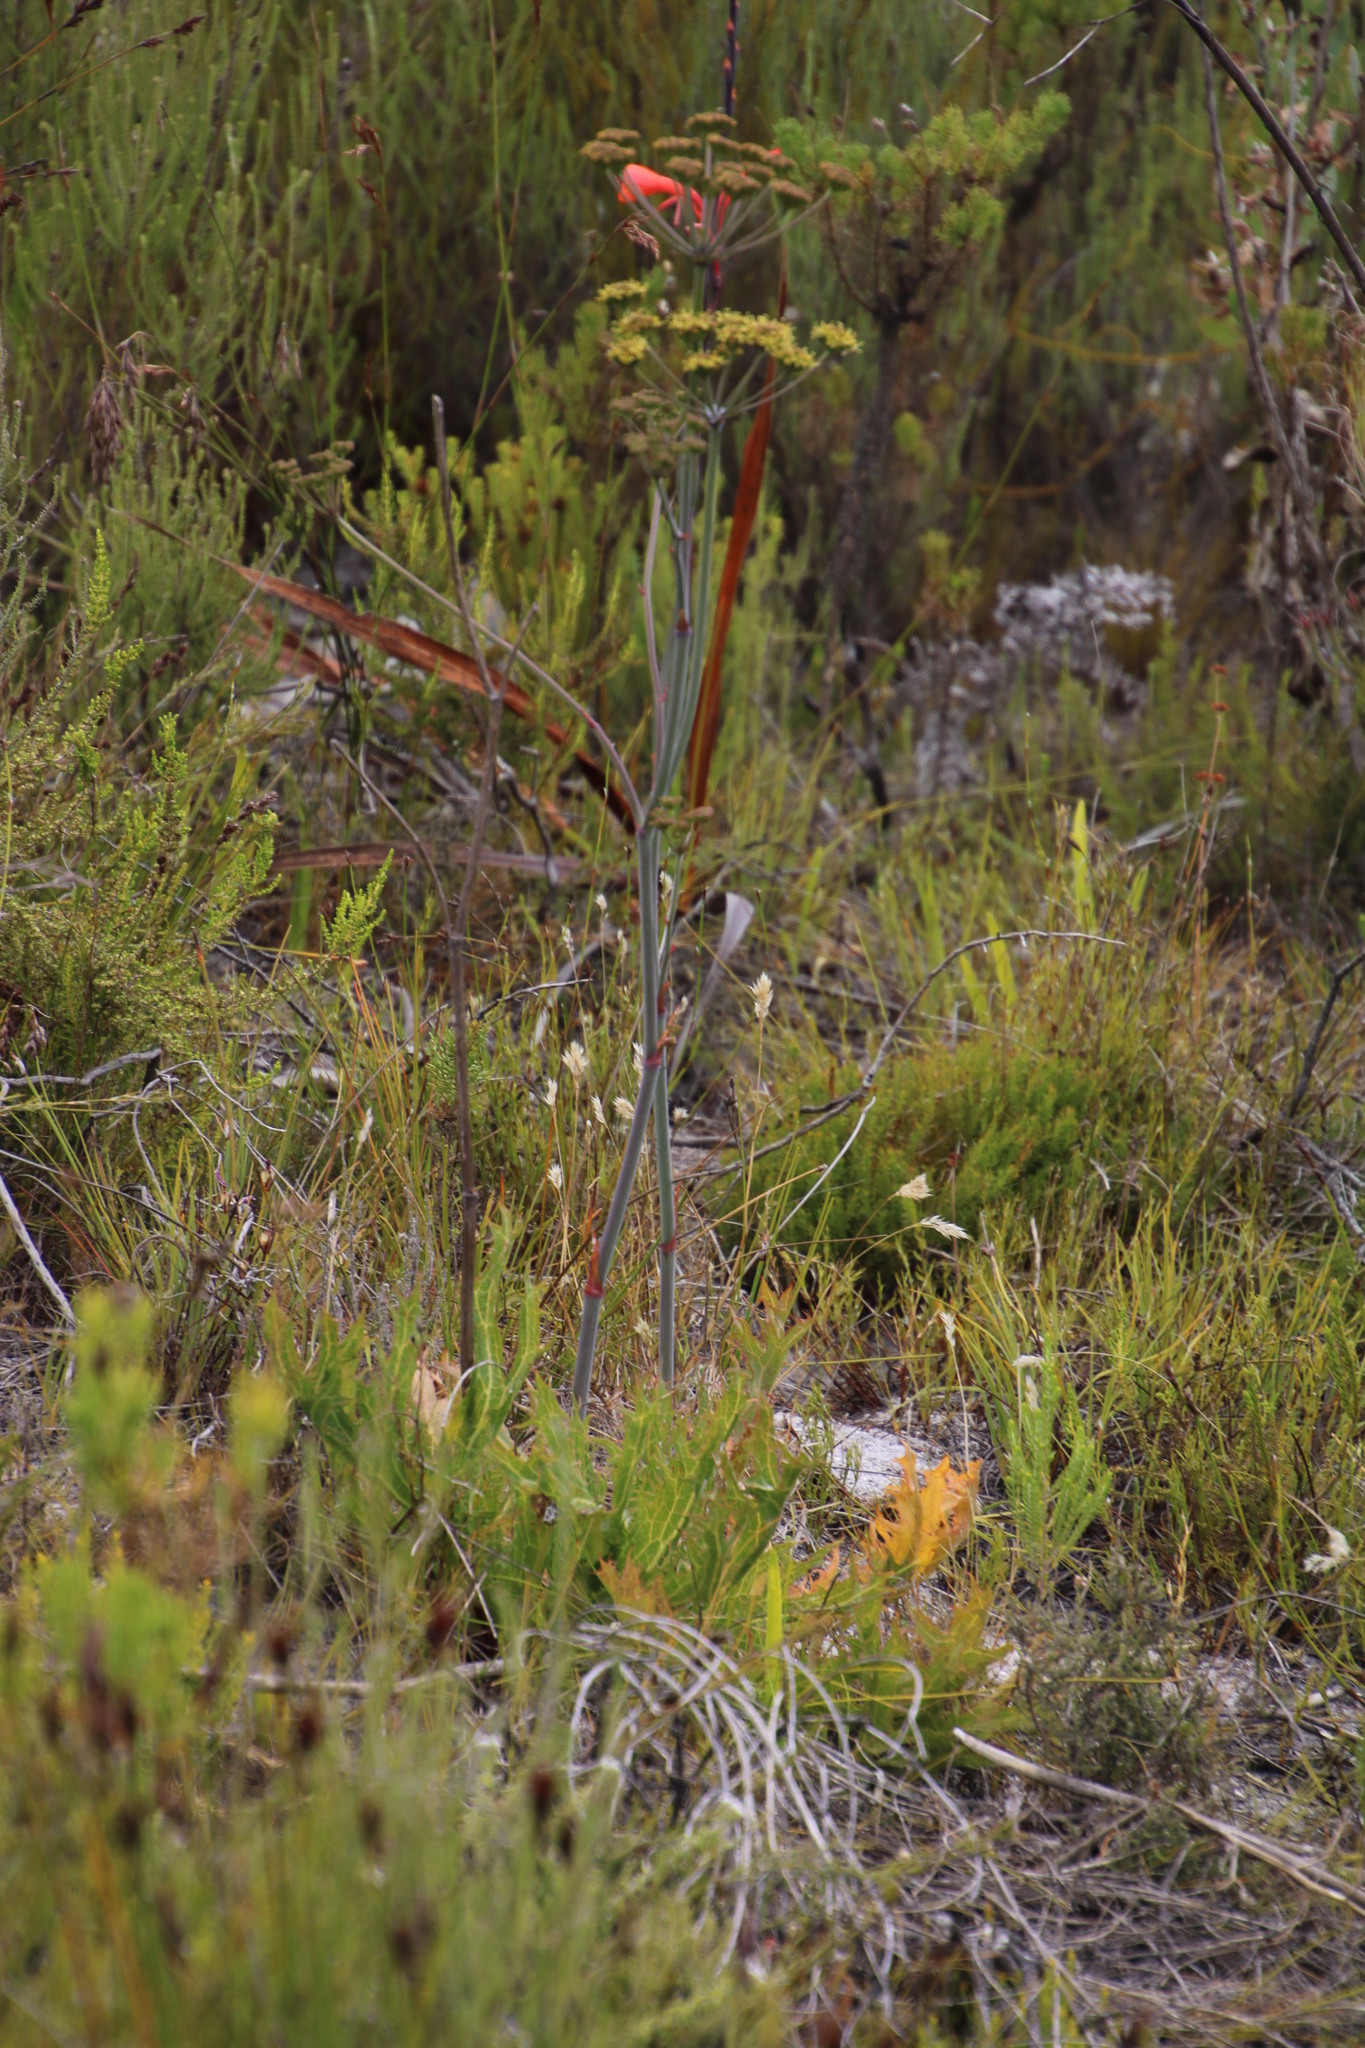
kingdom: Plantae
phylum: Tracheophyta
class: Magnoliopsida
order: Apiales
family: Apiaceae
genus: Lichtensteinia
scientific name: Lichtensteinia lacera
